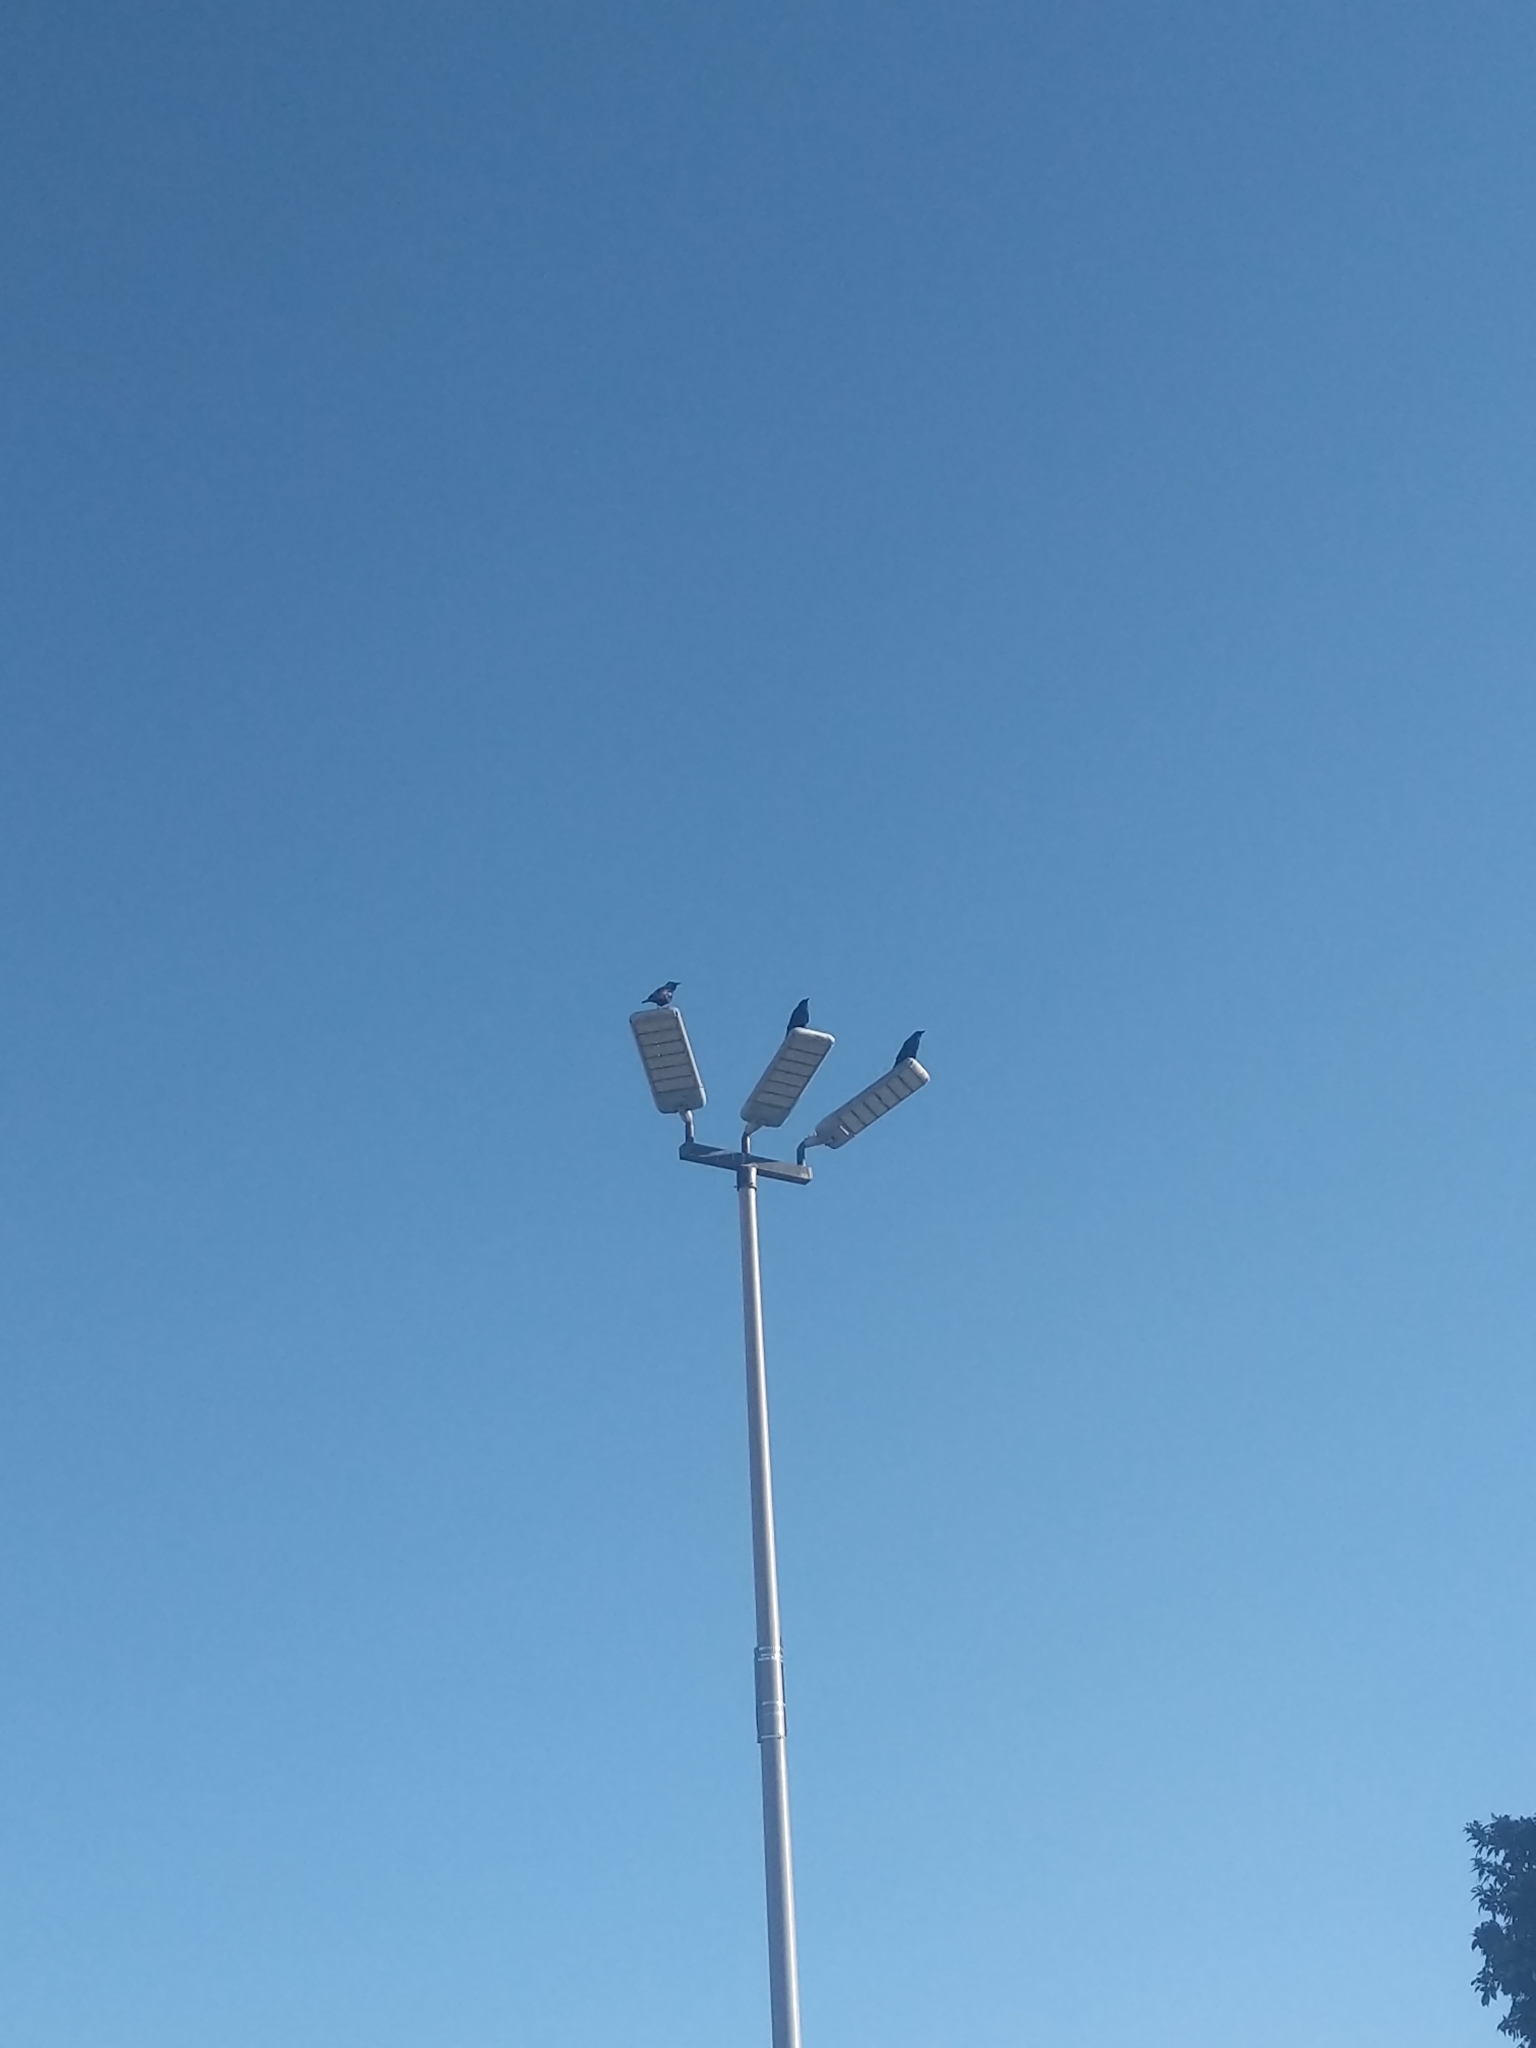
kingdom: Animalia
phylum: Chordata
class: Aves
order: Passeriformes
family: Corvidae
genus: Corvus
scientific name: Corvus ossifragus
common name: Fish crow
